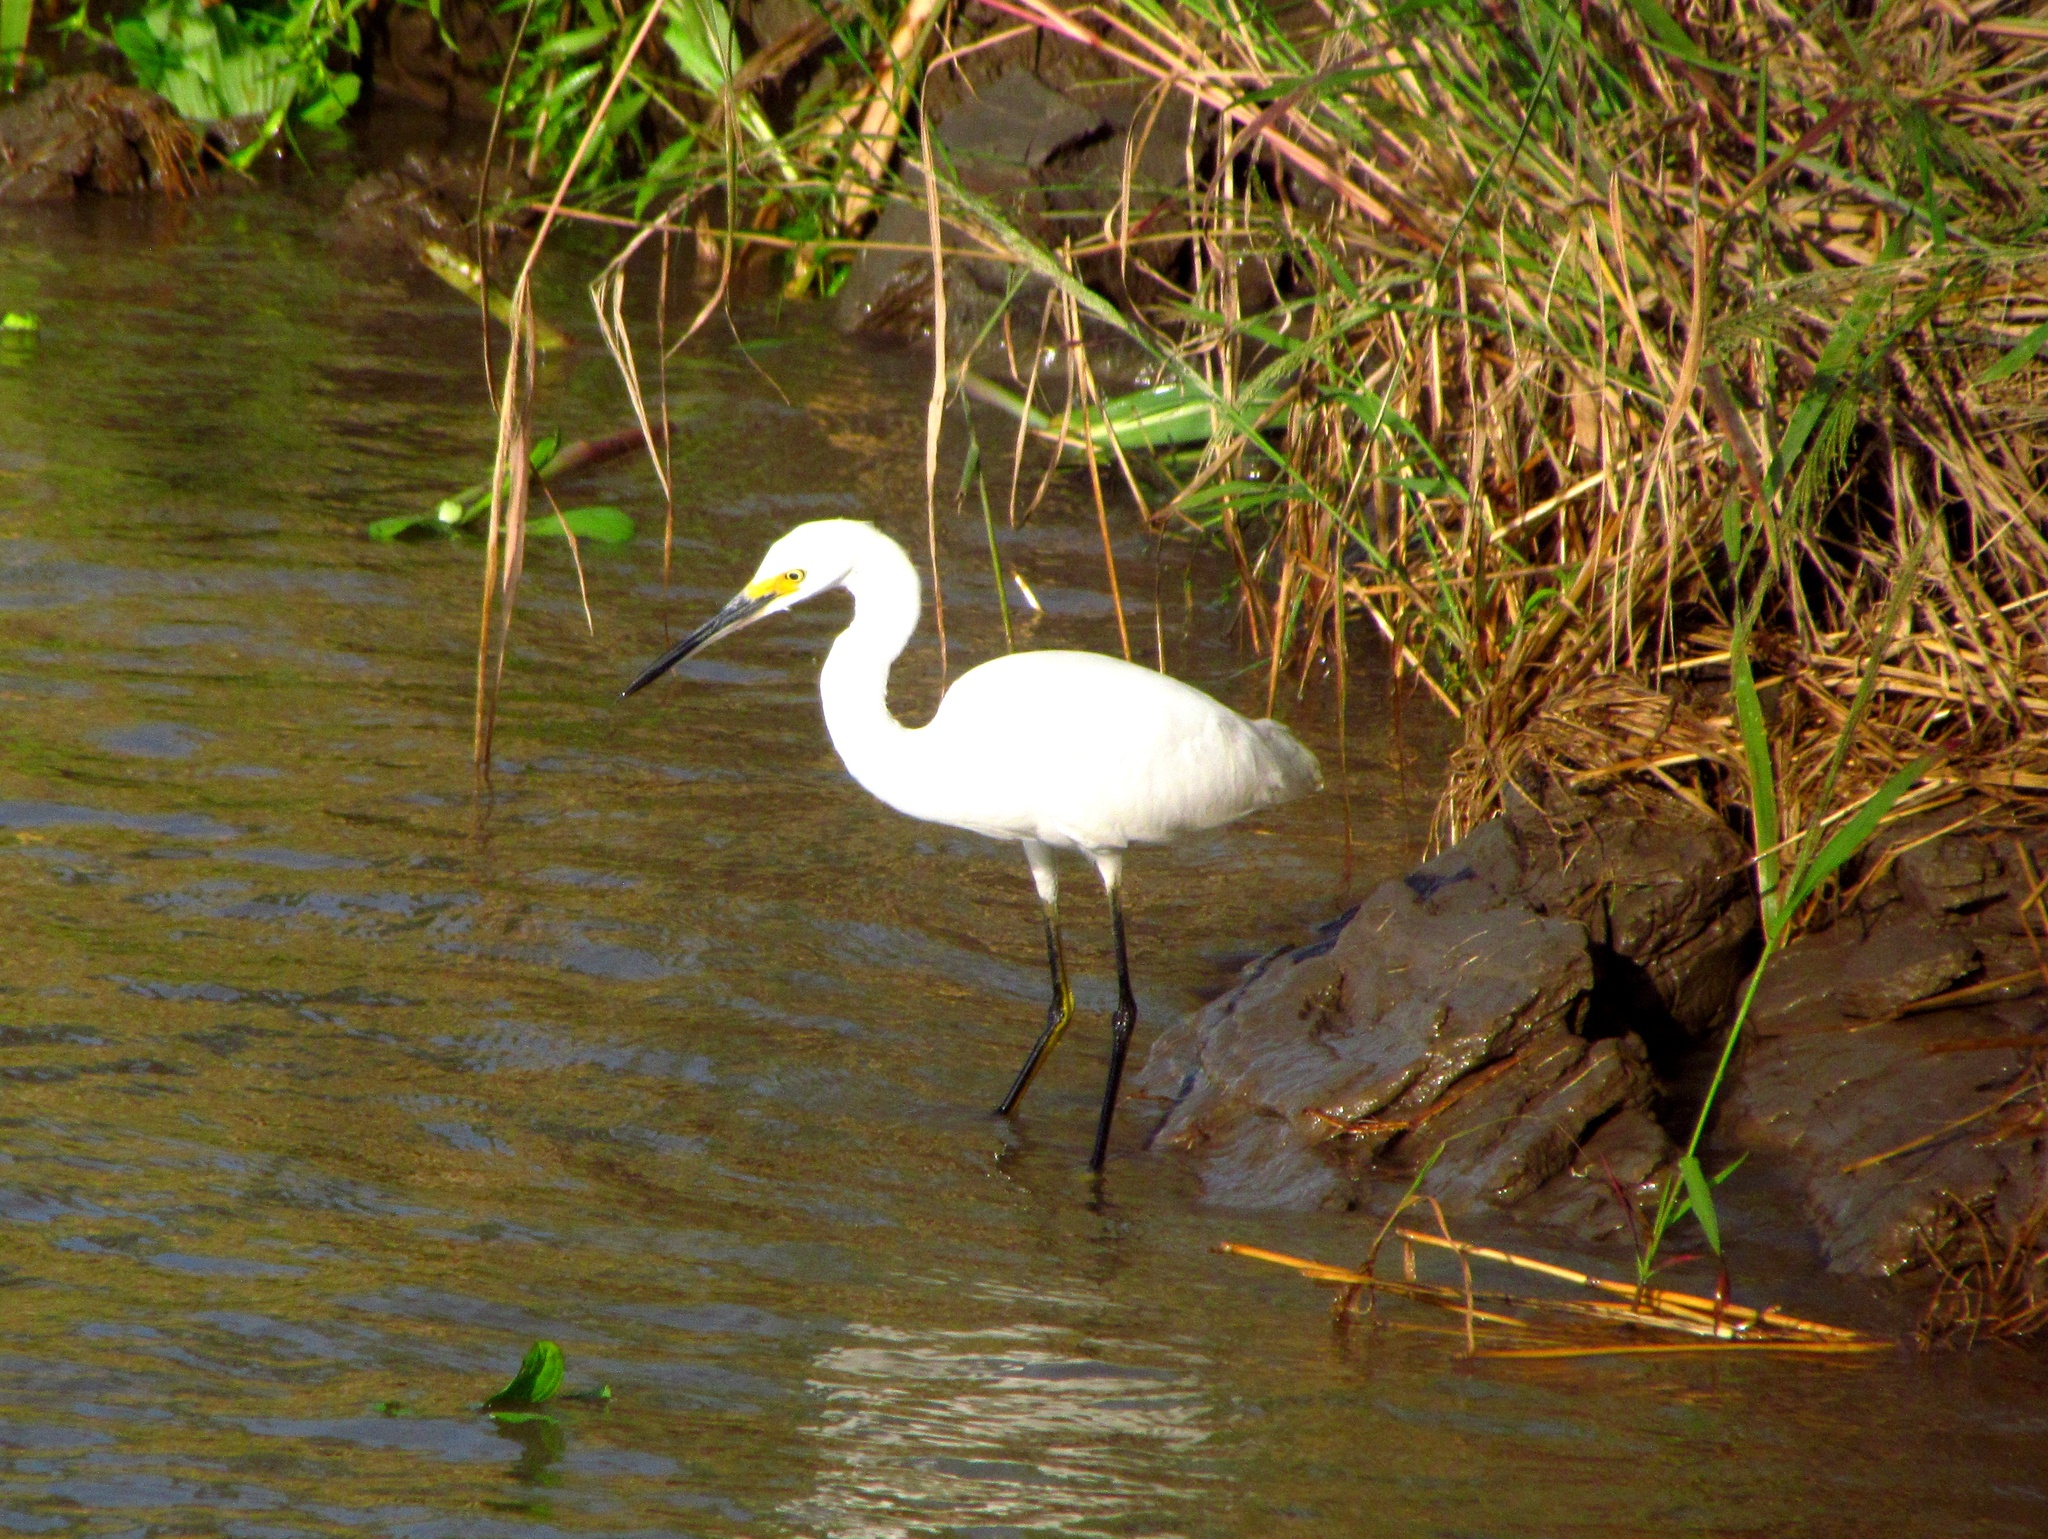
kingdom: Animalia
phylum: Chordata
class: Aves
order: Pelecaniformes
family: Ardeidae
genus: Egretta
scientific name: Egretta thula
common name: Snowy egret
